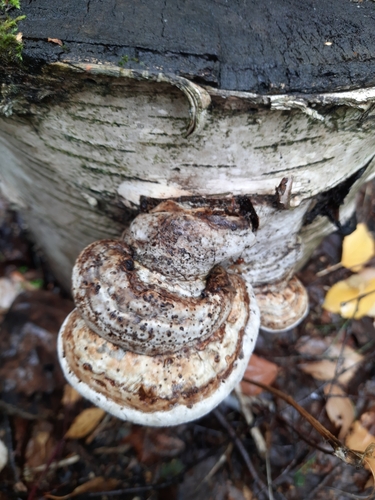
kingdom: Fungi
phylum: Basidiomycota
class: Agaricomycetes
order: Polyporales
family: Polyporaceae
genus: Fomes
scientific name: Fomes fomentarius
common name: Hoof fungus
